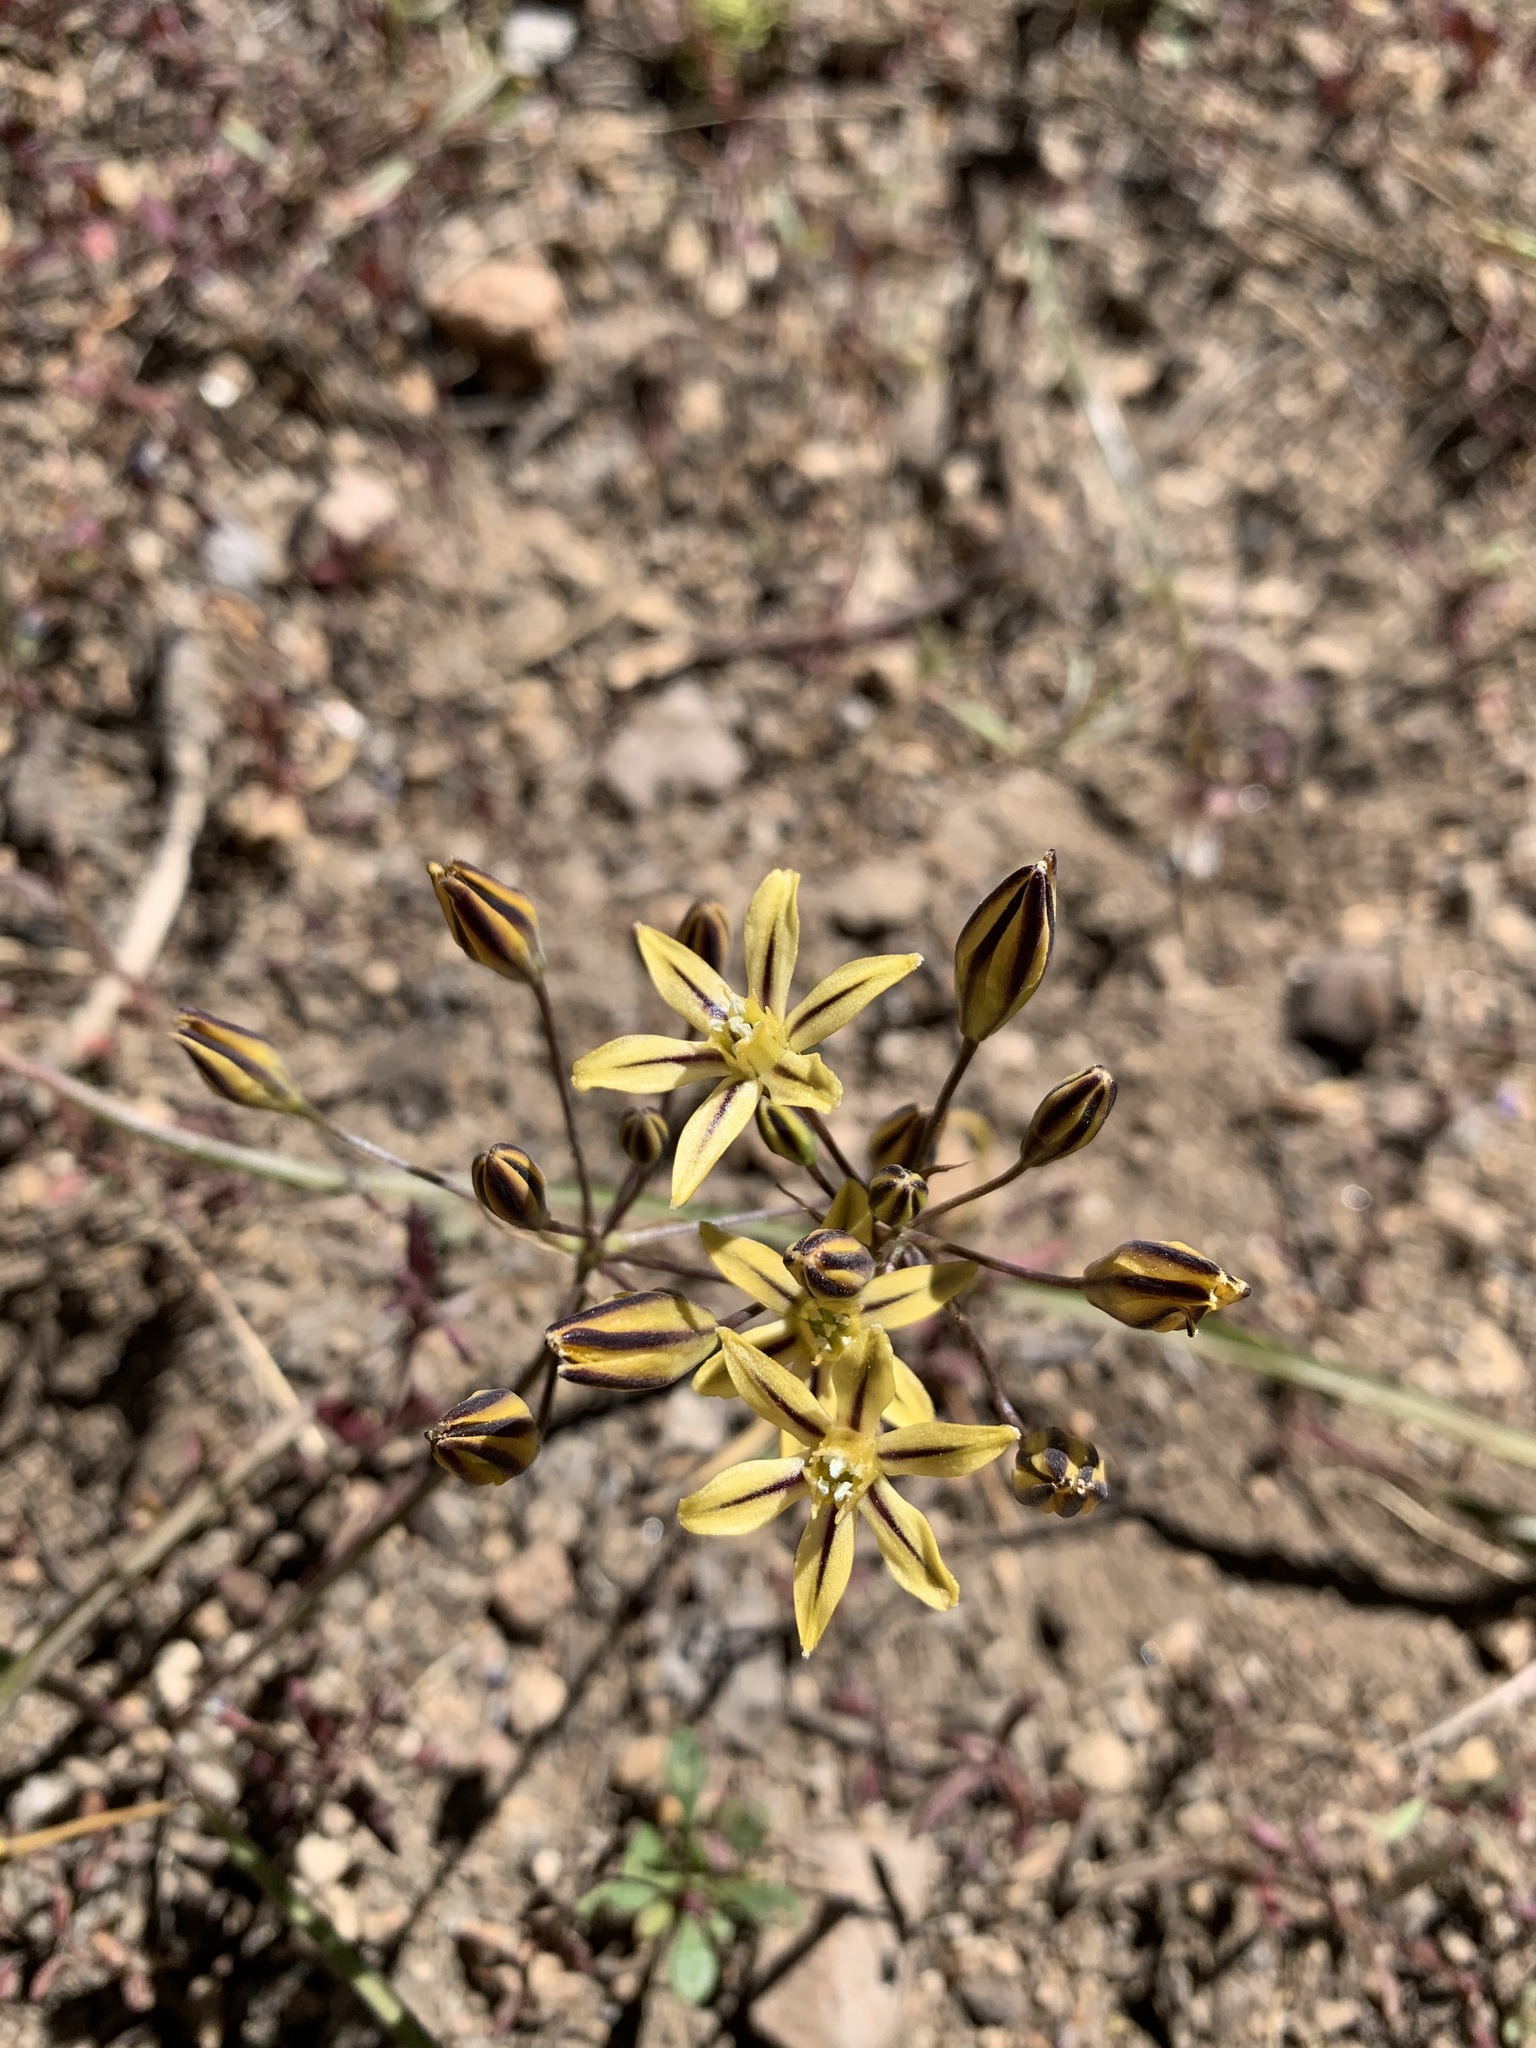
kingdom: Plantae
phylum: Tracheophyta
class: Liliopsida
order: Asparagales
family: Asparagaceae
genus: Triteleia
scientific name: Triteleia ixioides
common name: Yellow-brodiaea
